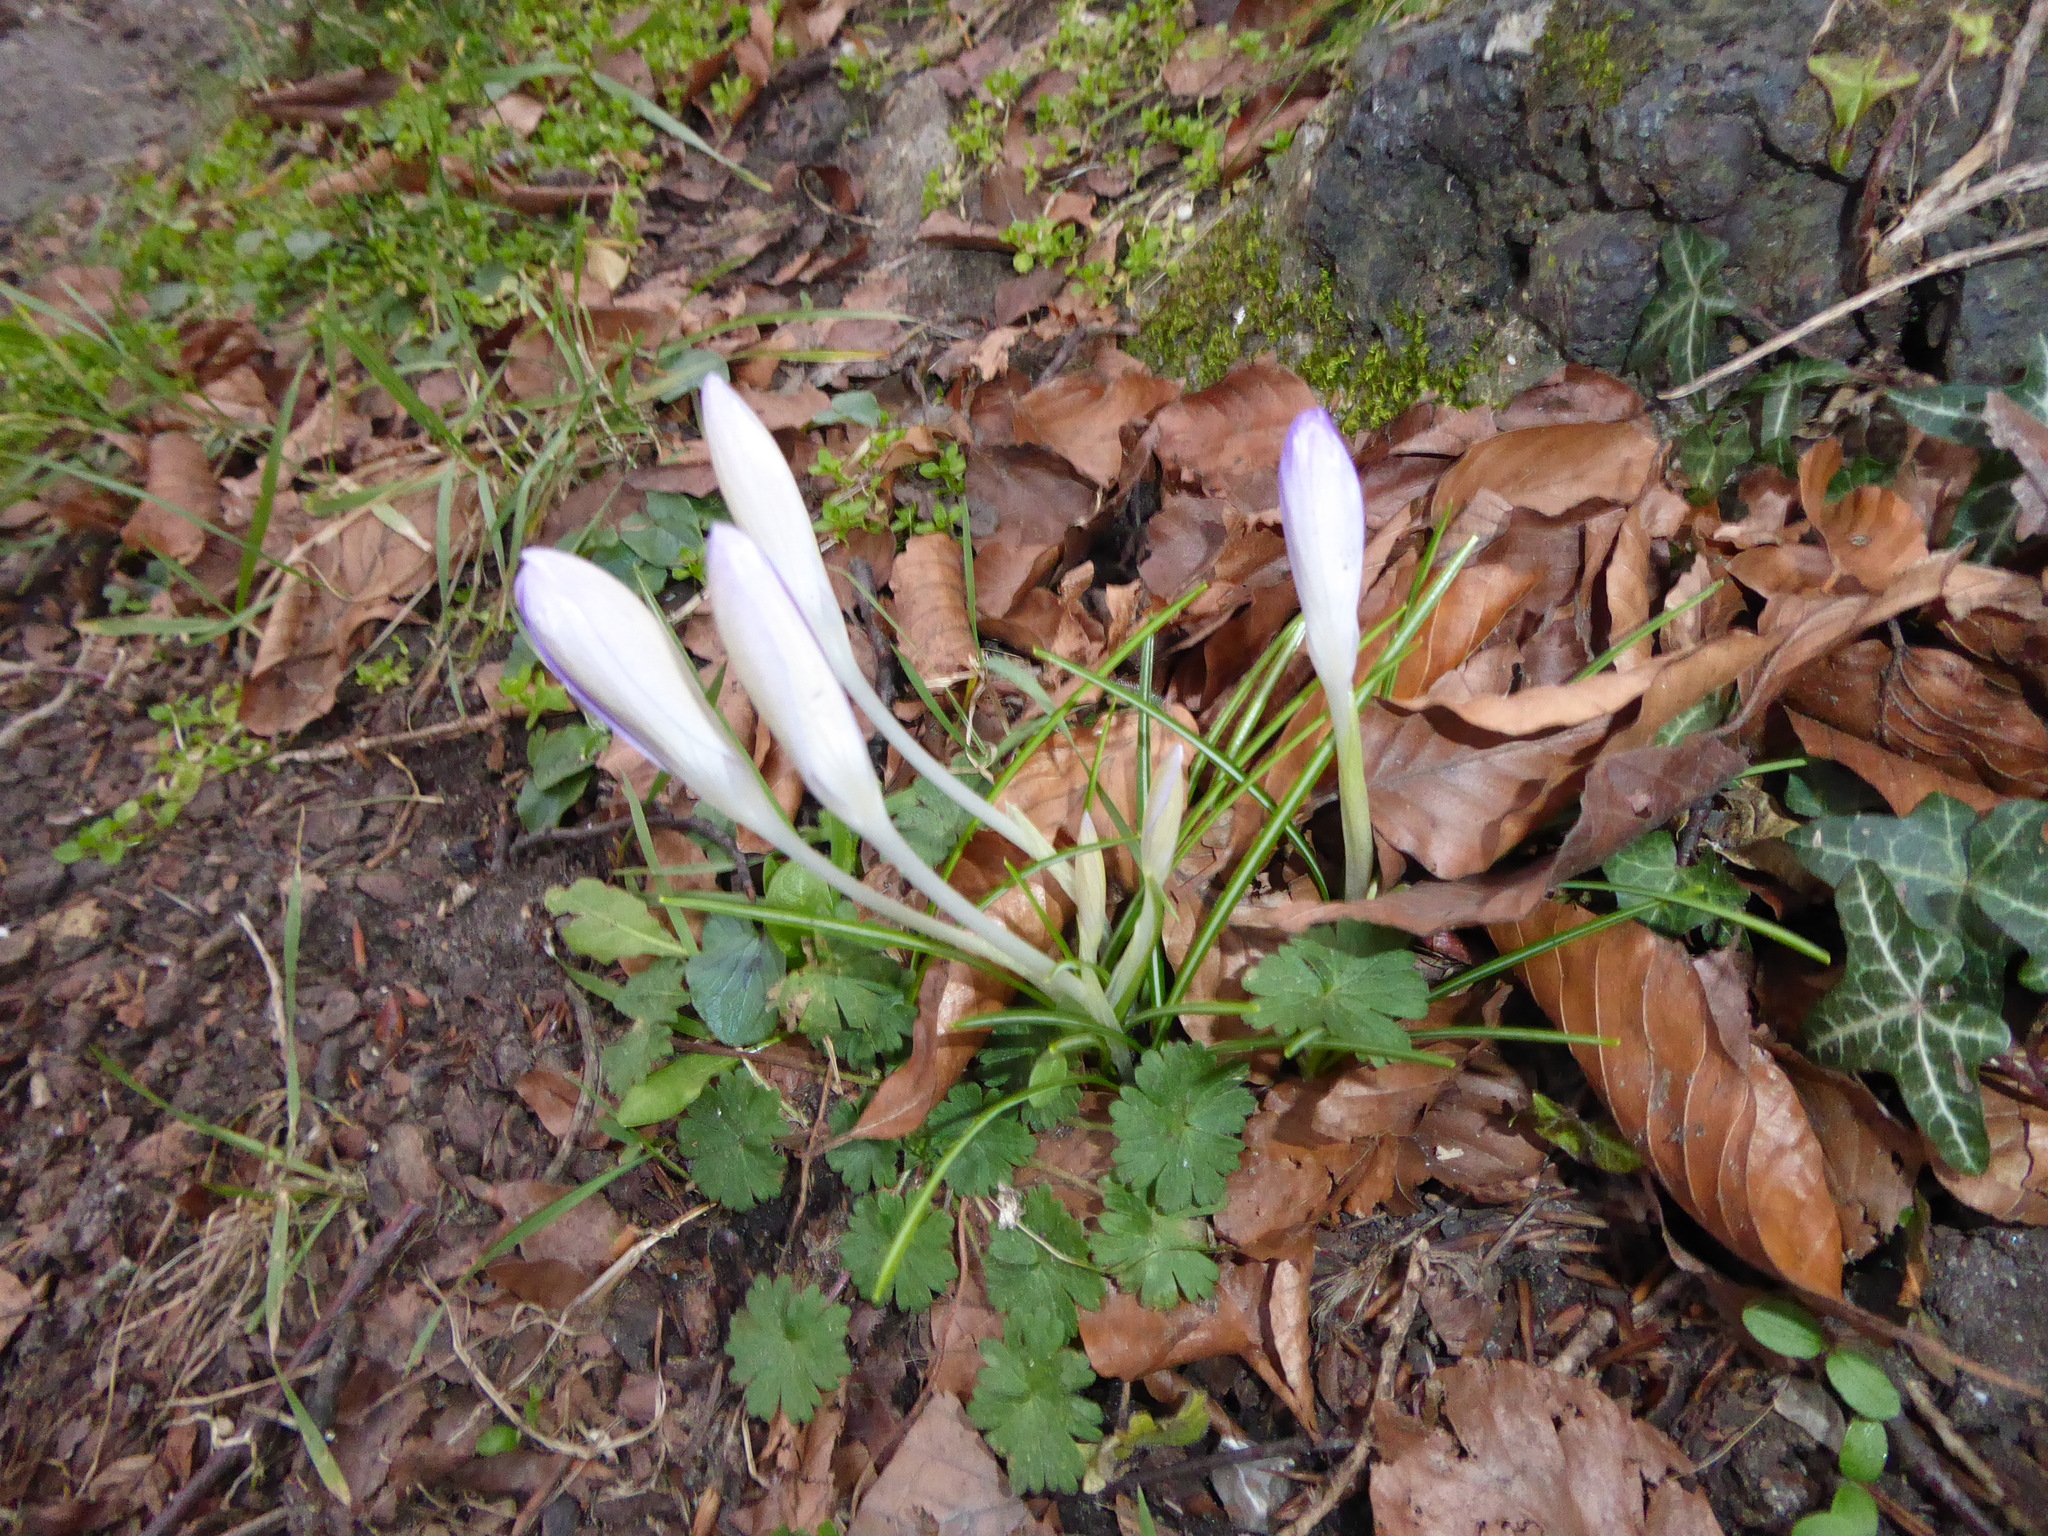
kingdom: Plantae
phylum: Tracheophyta
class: Liliopsida
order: Asparagales
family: Iridaceae
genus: Crocus
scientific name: Crocus tommasinianus
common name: Early crocus
